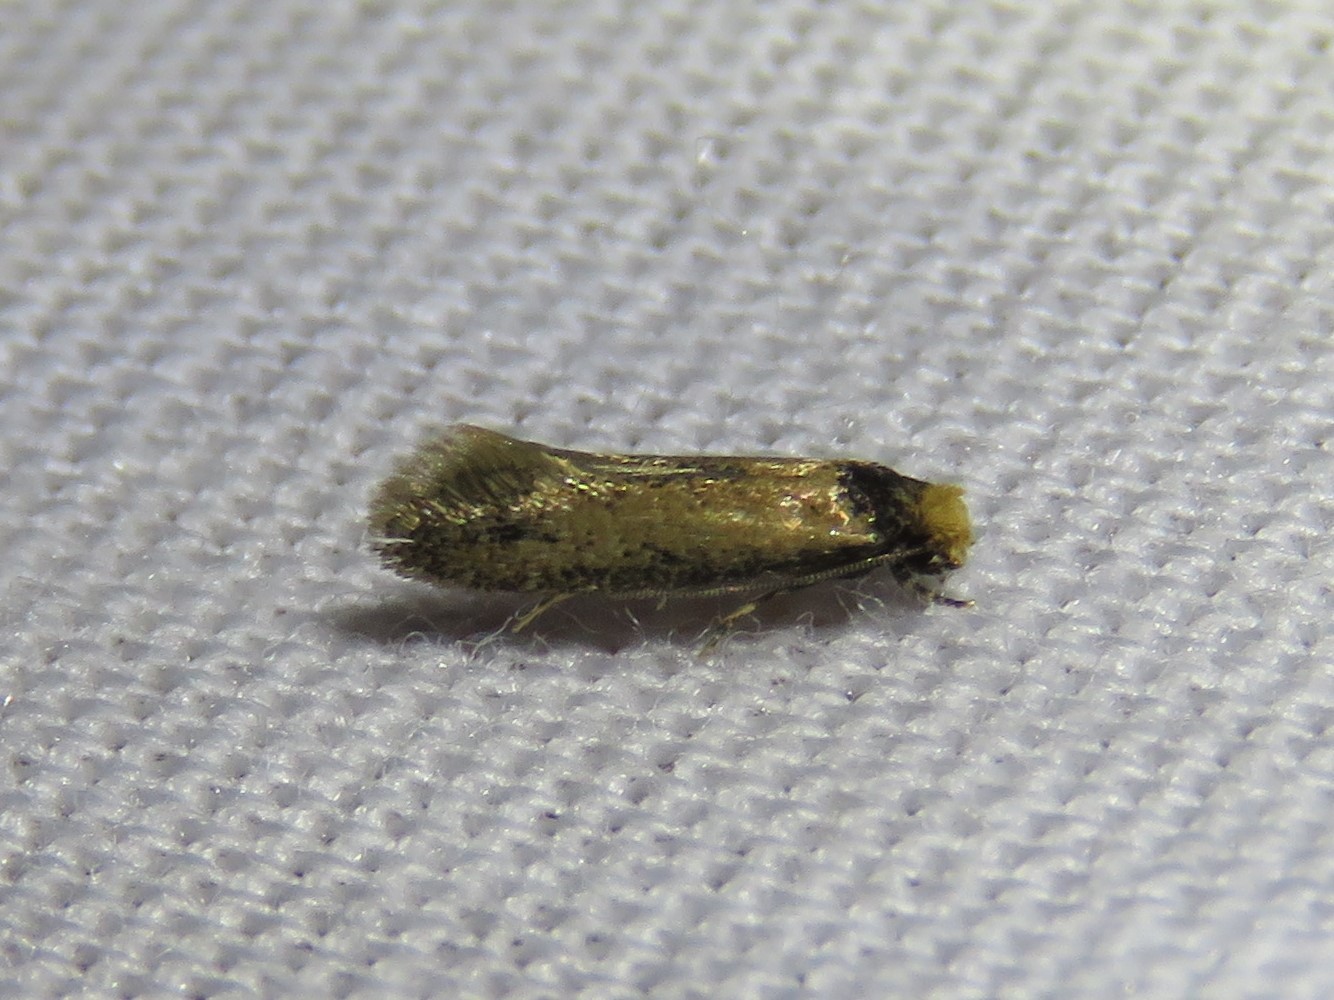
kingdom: Animalia
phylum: Arthropoda
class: Insecta
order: Lepidoptera
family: Meessiidae
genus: Homostinea
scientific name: Homostinea curviliniella
